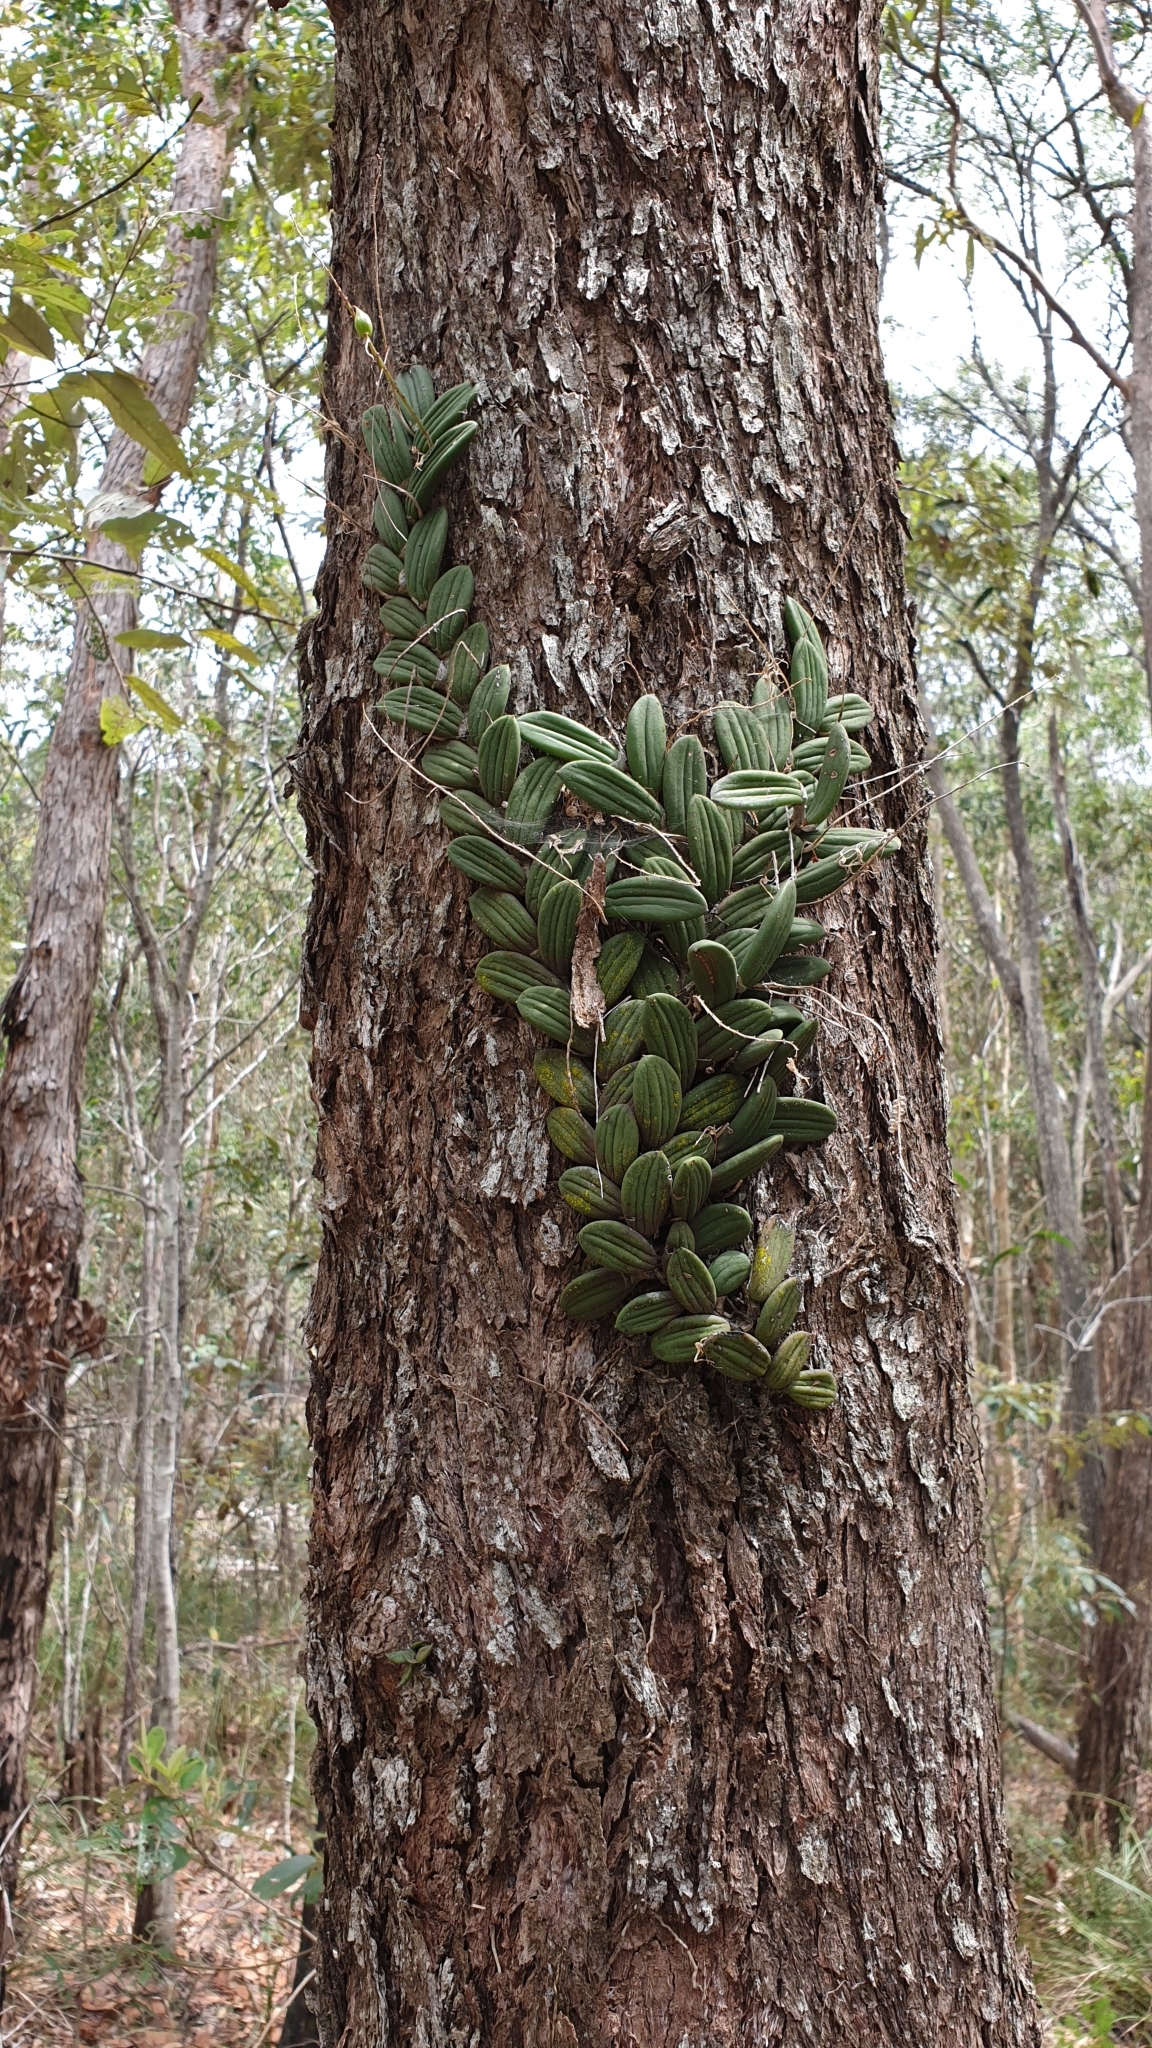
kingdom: Plantae
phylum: Tracheophyta
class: Liliopsida
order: Asparagales
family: Orchidaceae
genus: Dendrobium
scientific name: Dendrobium linguiforme
